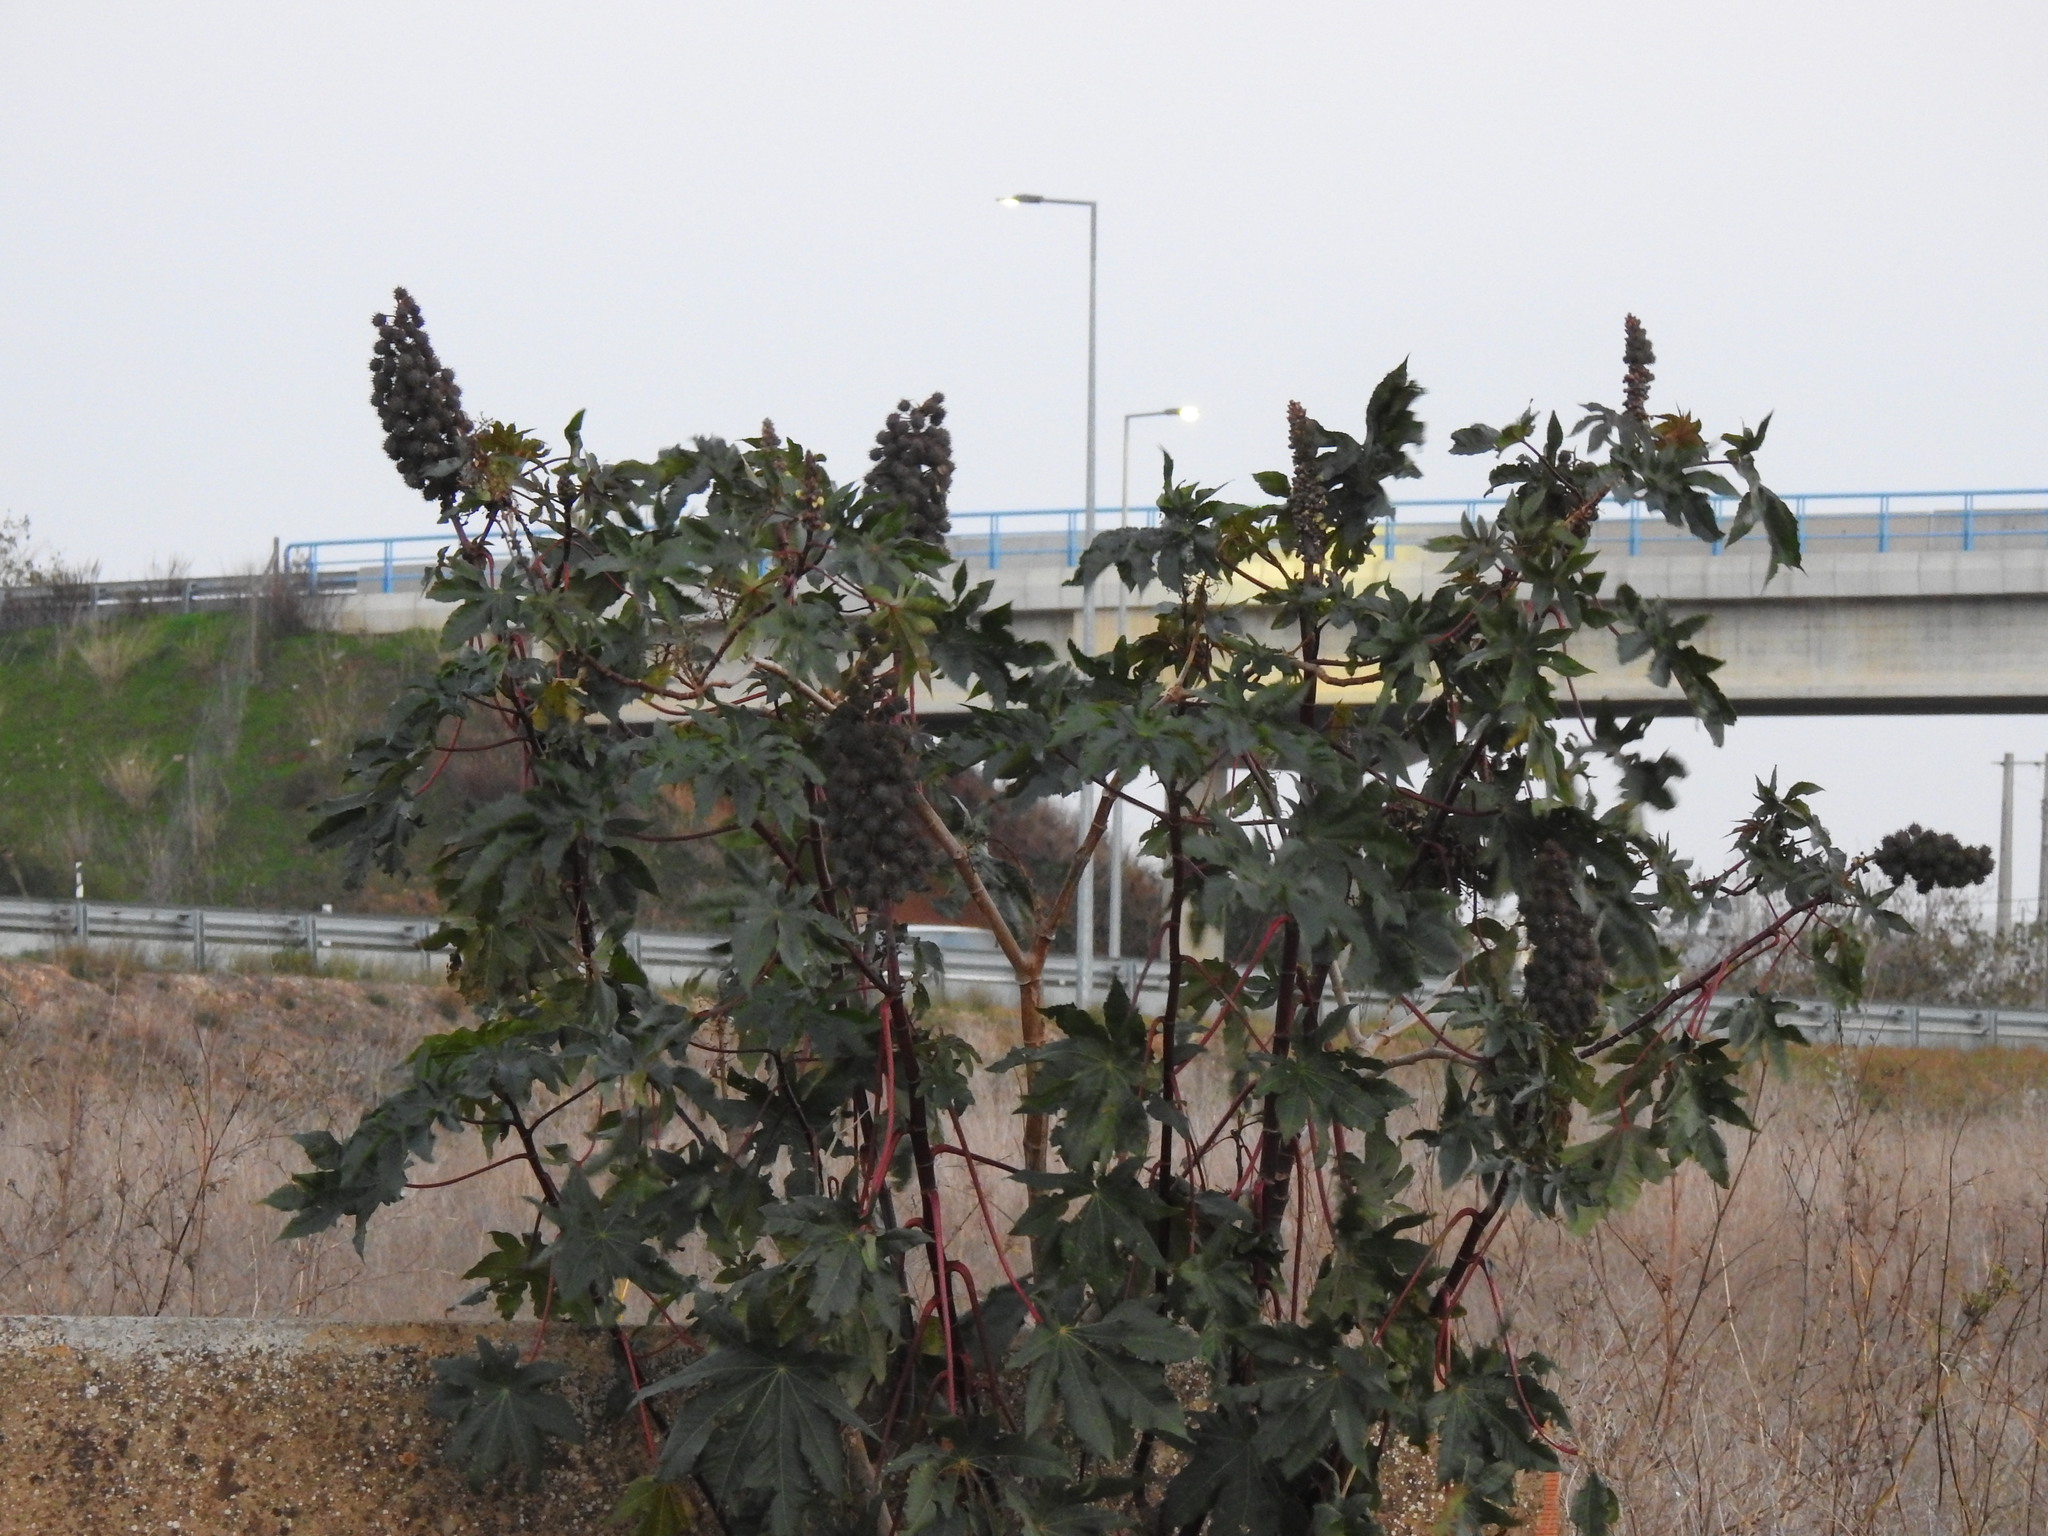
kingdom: Plantae
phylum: Tracheophyta
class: Magnoliopsida
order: Malpighiales
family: Euphorbiaceae
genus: Ricinus
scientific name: Ricinus communis
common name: Castor-oil-plant
